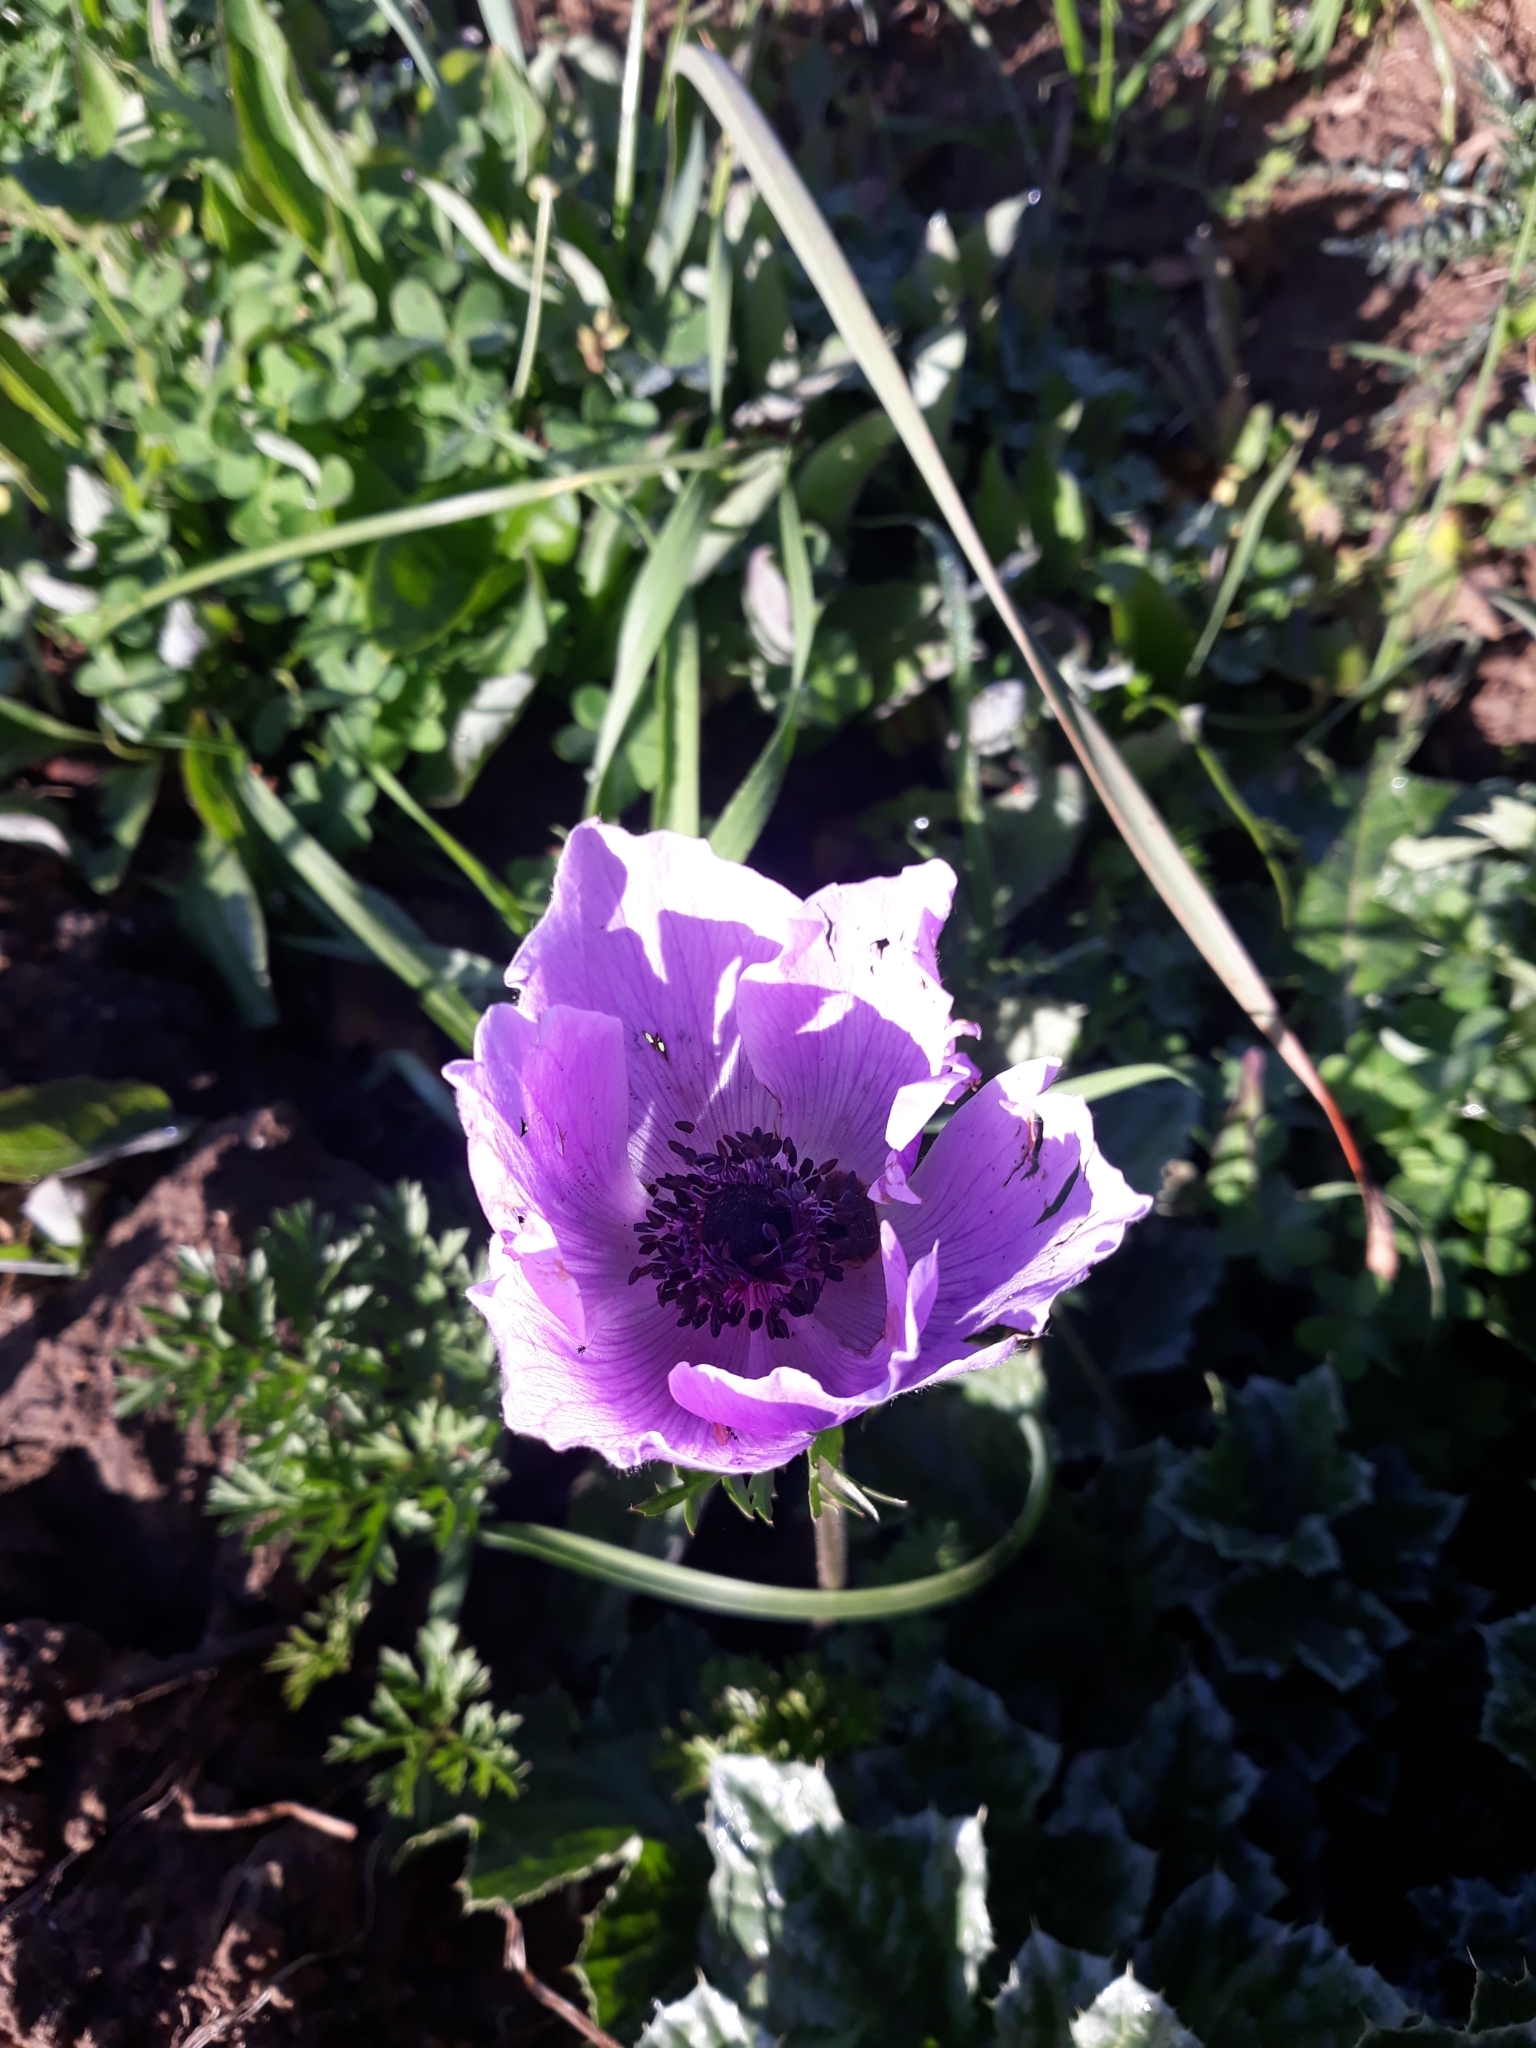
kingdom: Plantae
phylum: Tracheophyta
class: Magnoliopsida
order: Ranunculales
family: Ranunculaceae
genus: Anemone
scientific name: Anemone coronaria
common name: Poppy anemone
